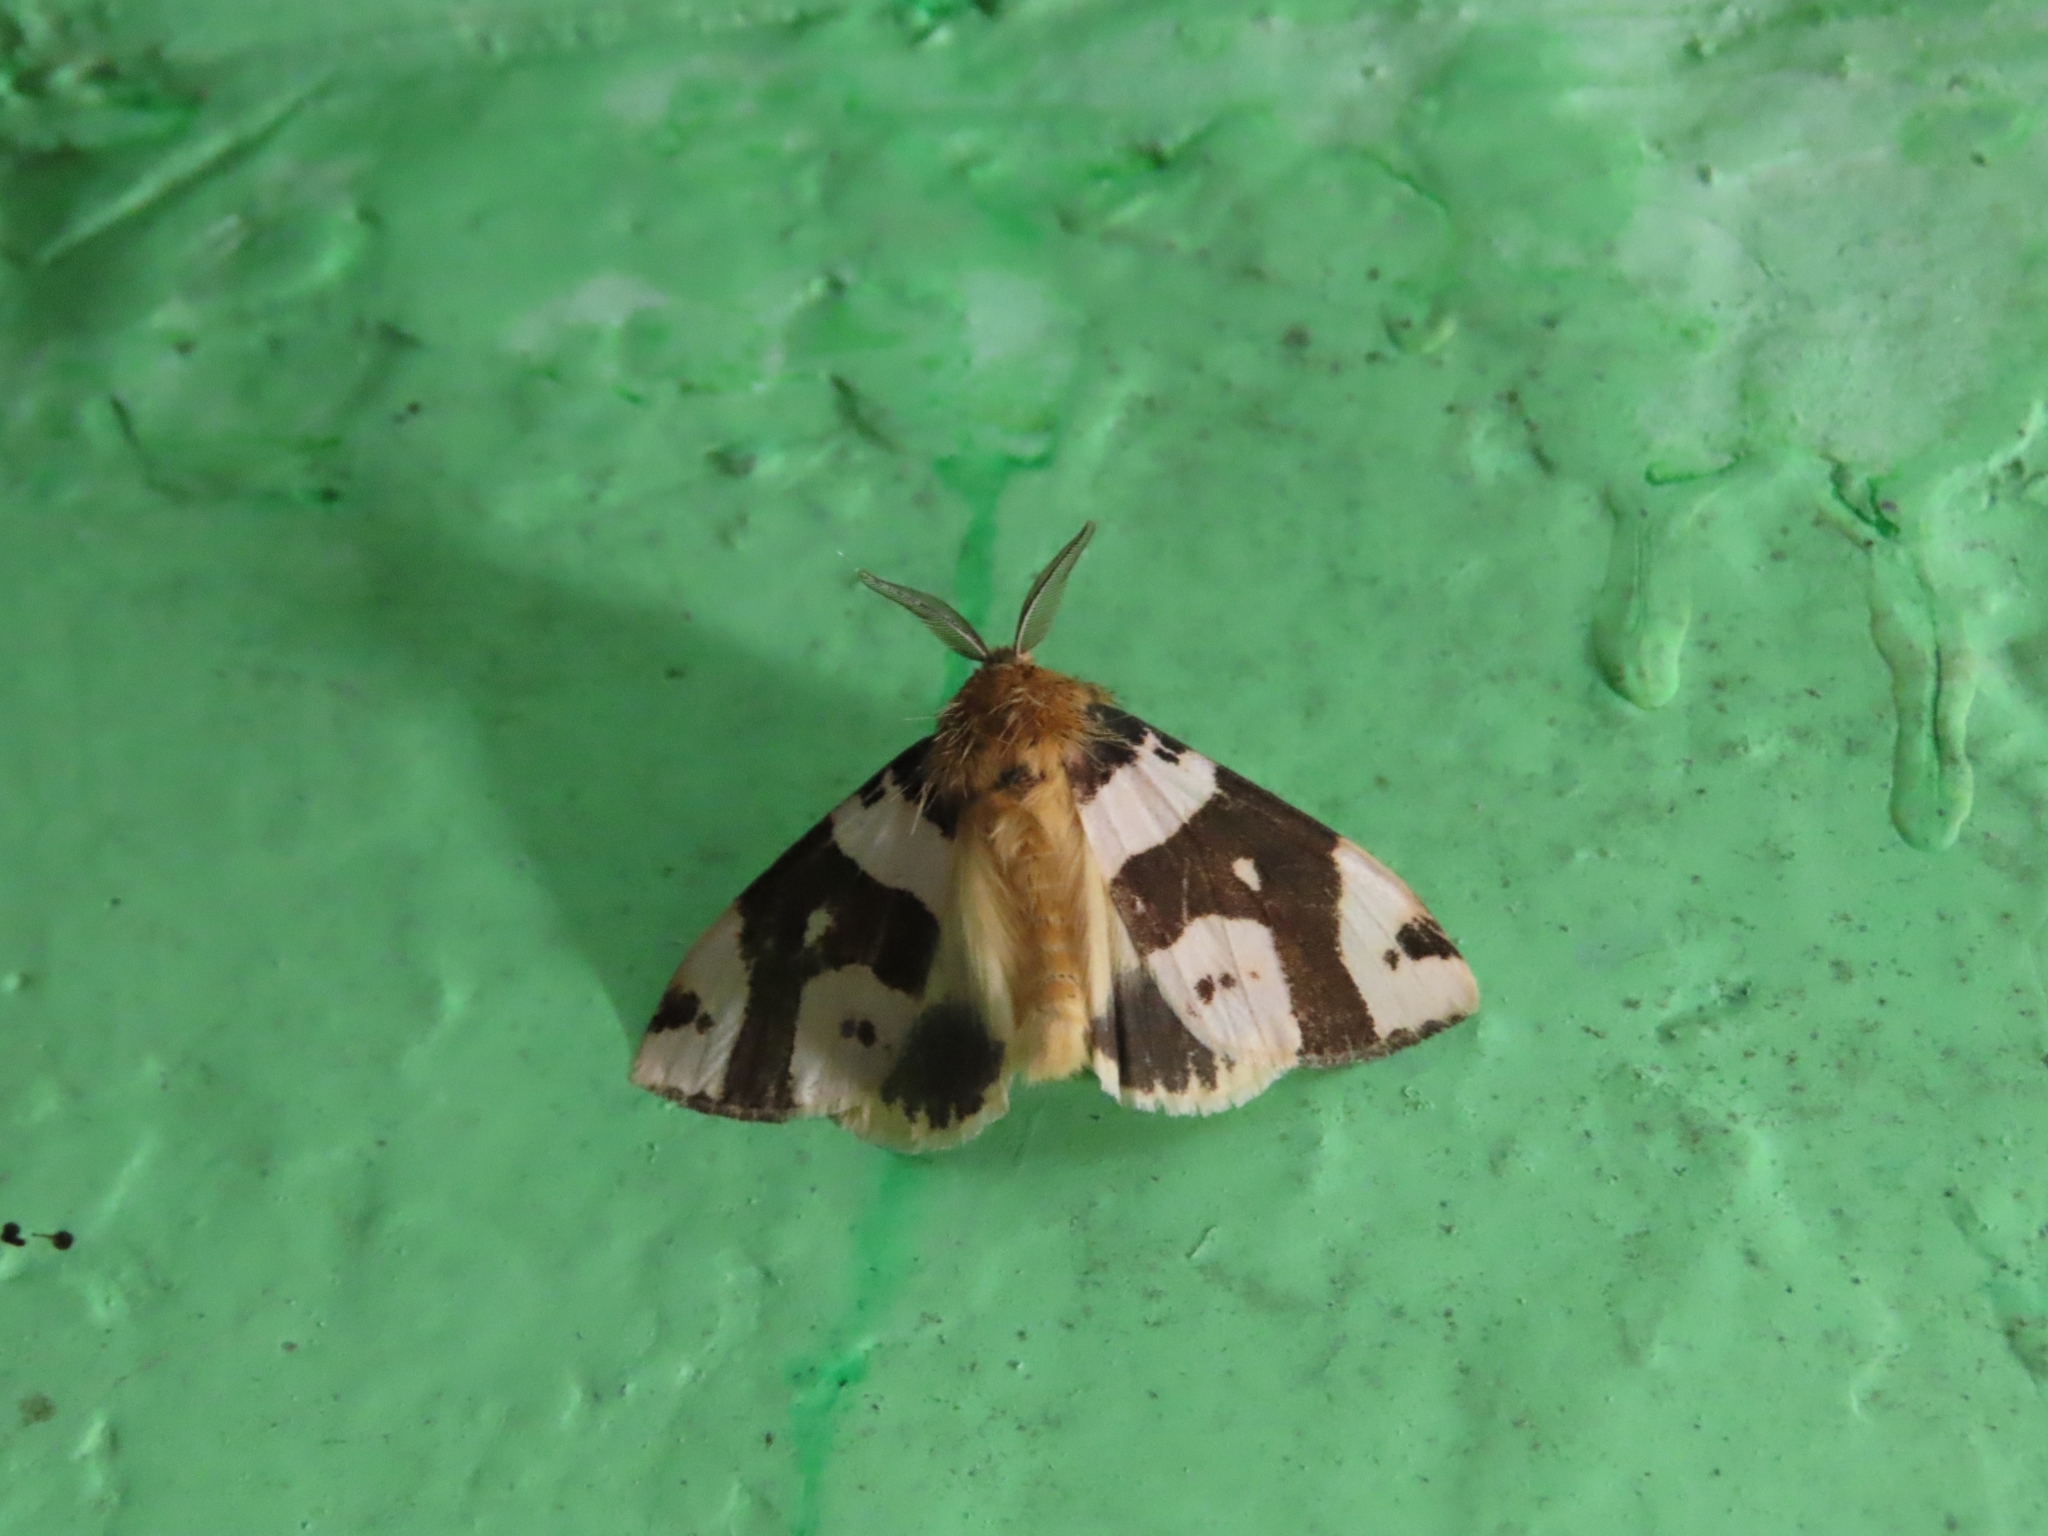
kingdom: Animalia
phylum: Arthropoda
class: Insecta
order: Lepidoptera
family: Erebidae
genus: Pida
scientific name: Pida
